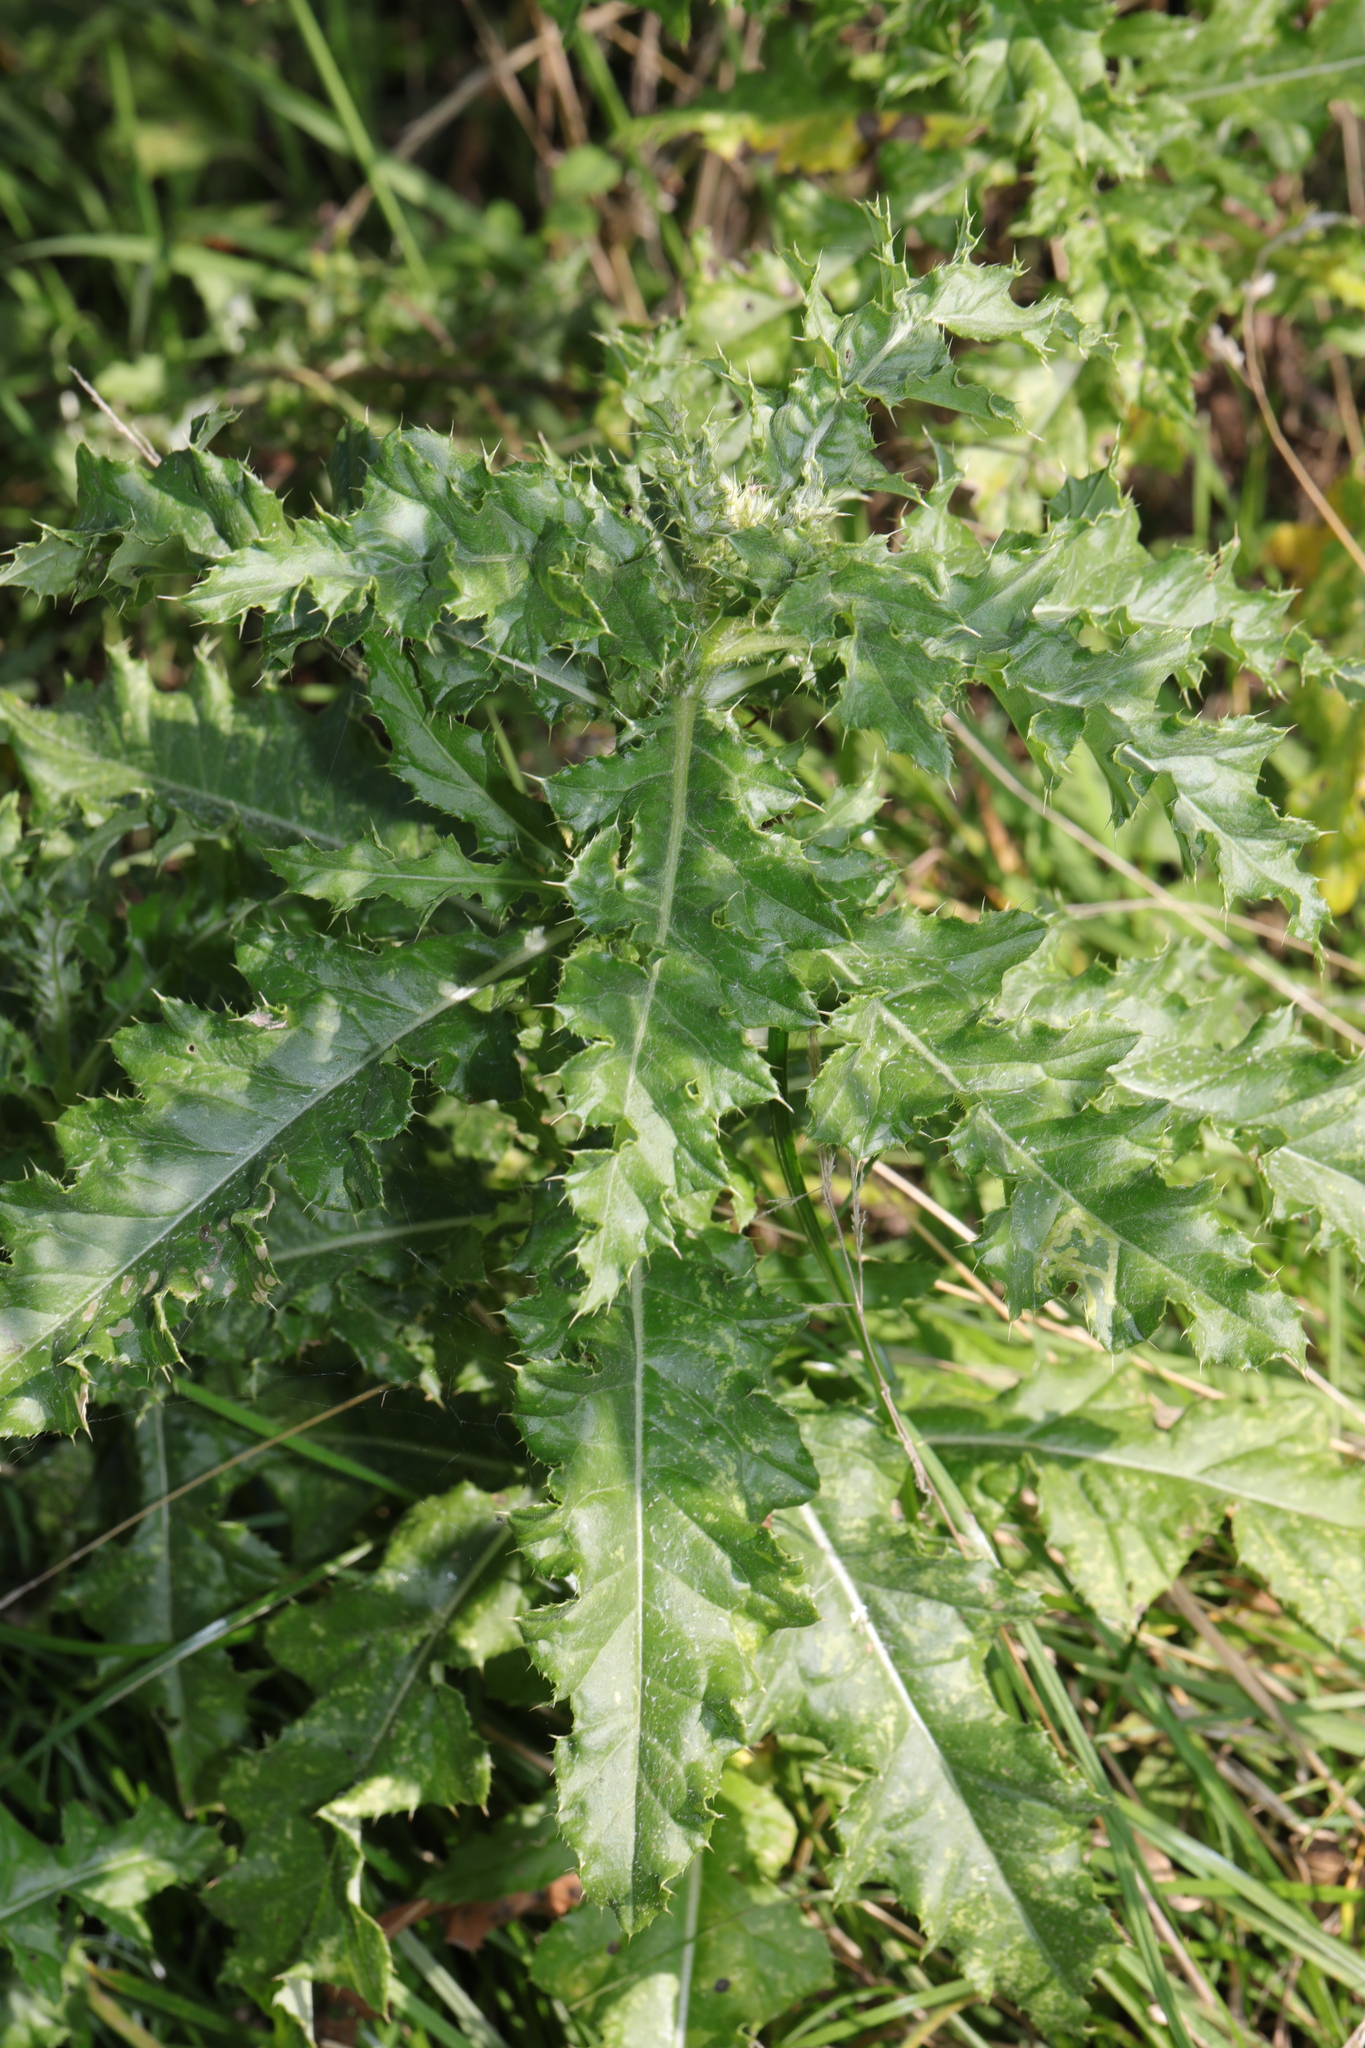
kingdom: Plantae
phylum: Tracheophyta
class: Magnoliopsida
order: Asterales
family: Asteraceae
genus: Cirsium
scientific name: Cirsium arvense
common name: Creeping thistle
